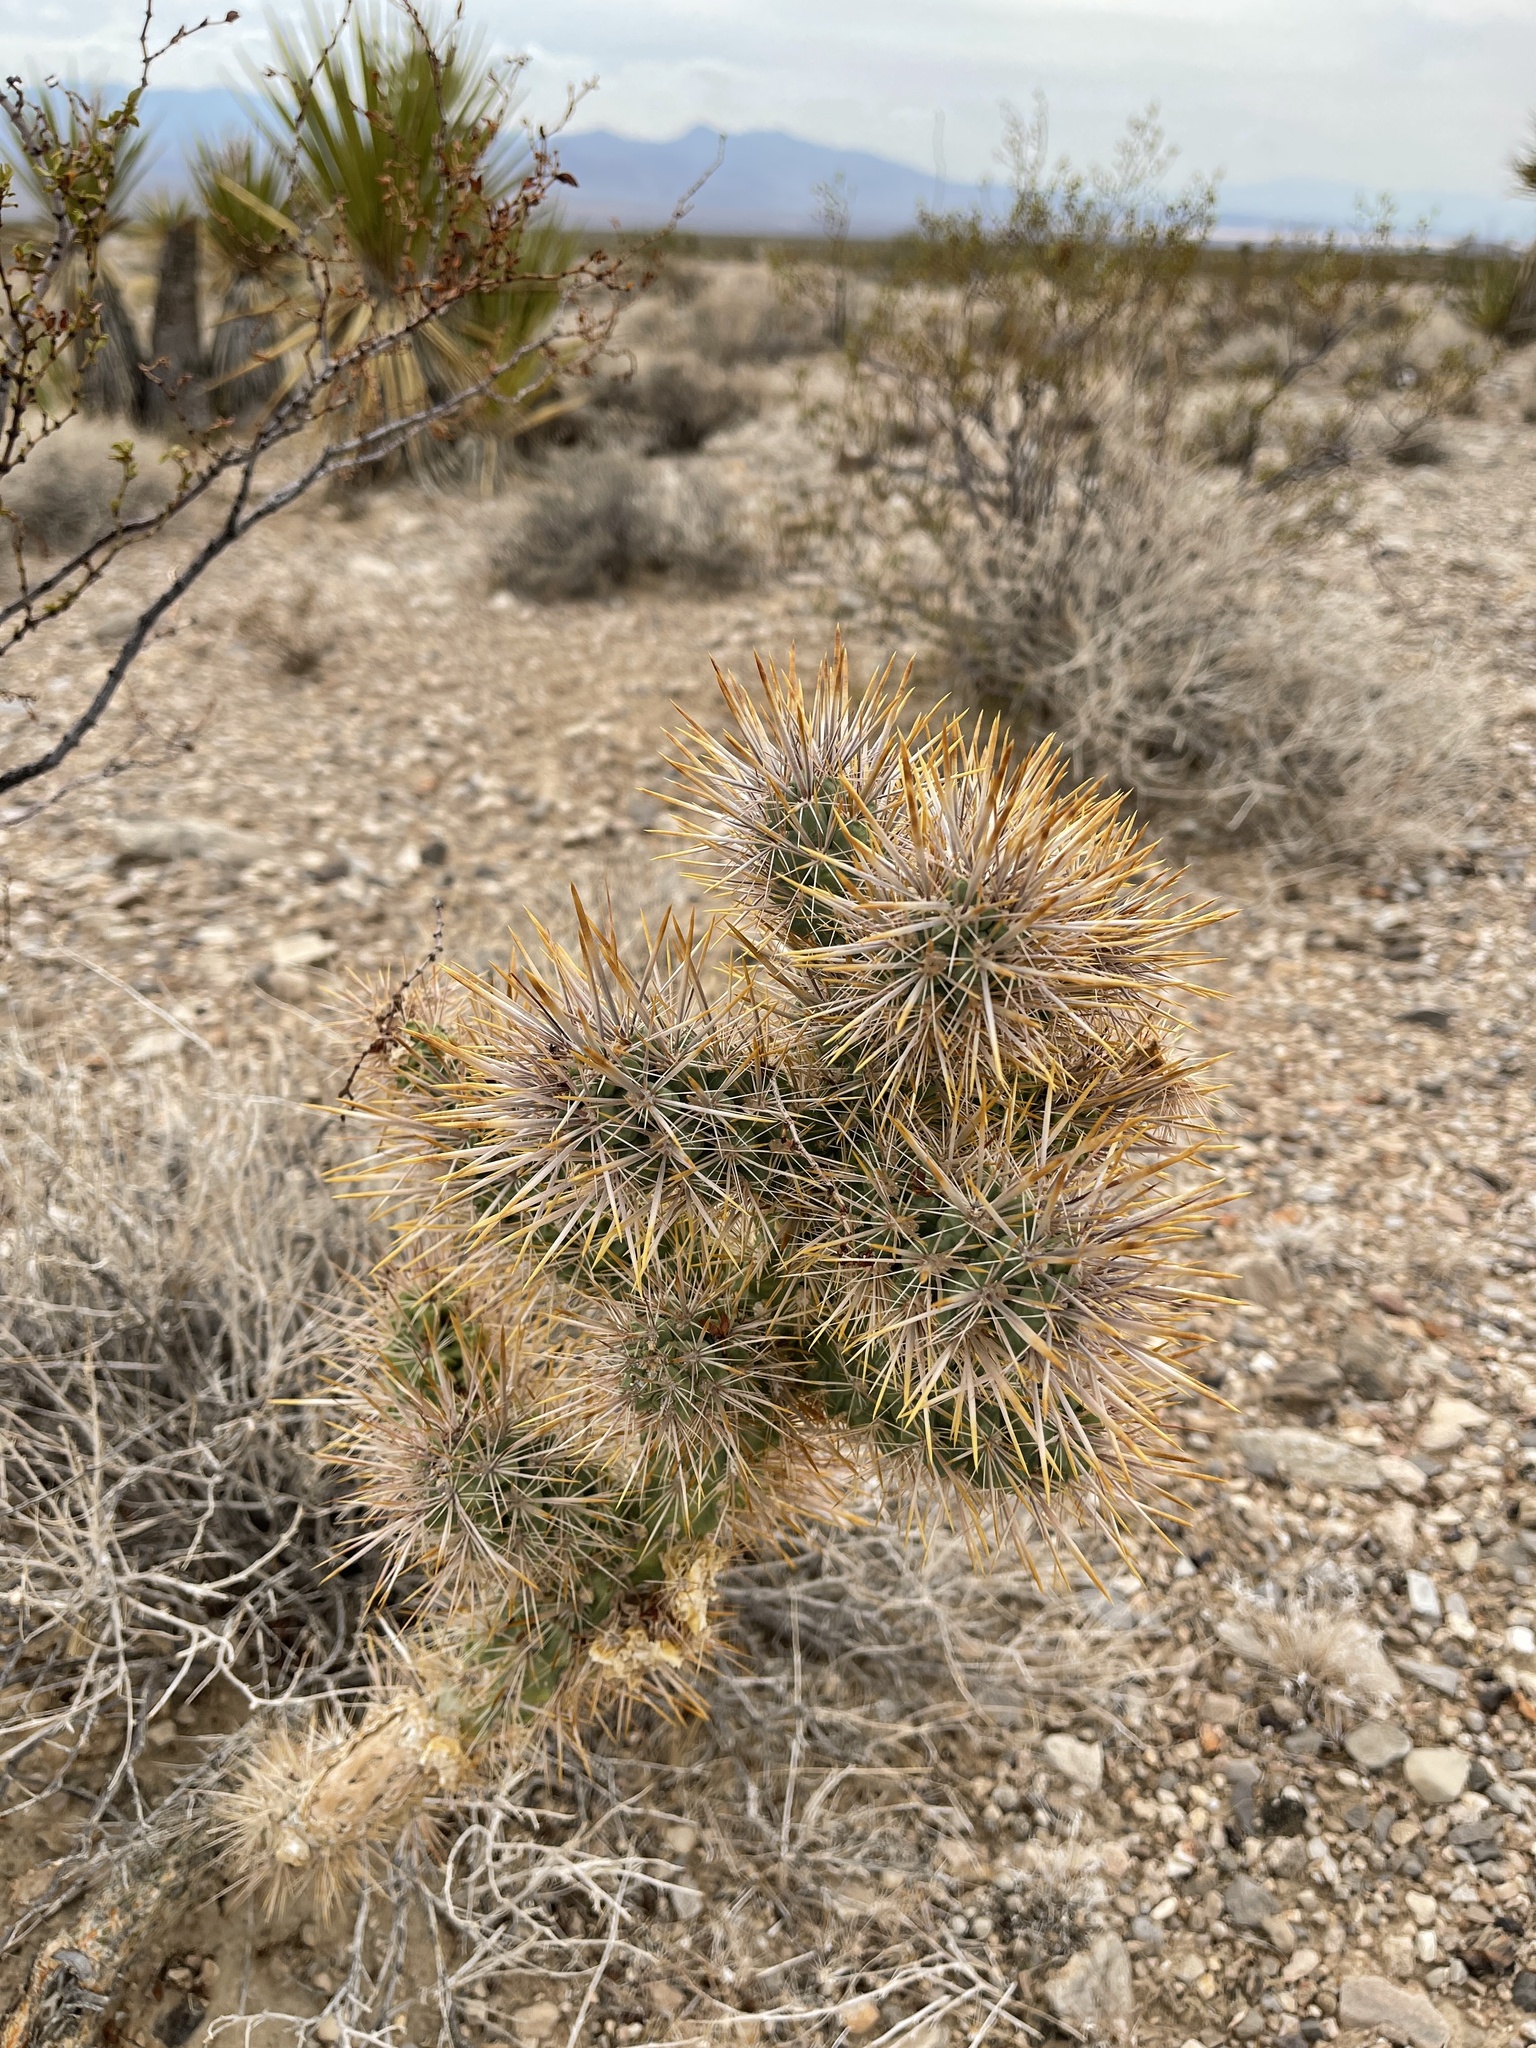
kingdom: Plantae
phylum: Tracheophyta
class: Magnoliopsida
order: Caryophyllales
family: Cactaceae
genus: Cylindropuntia
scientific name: Cylindropuntia echinocarpa
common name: Ground cholla
